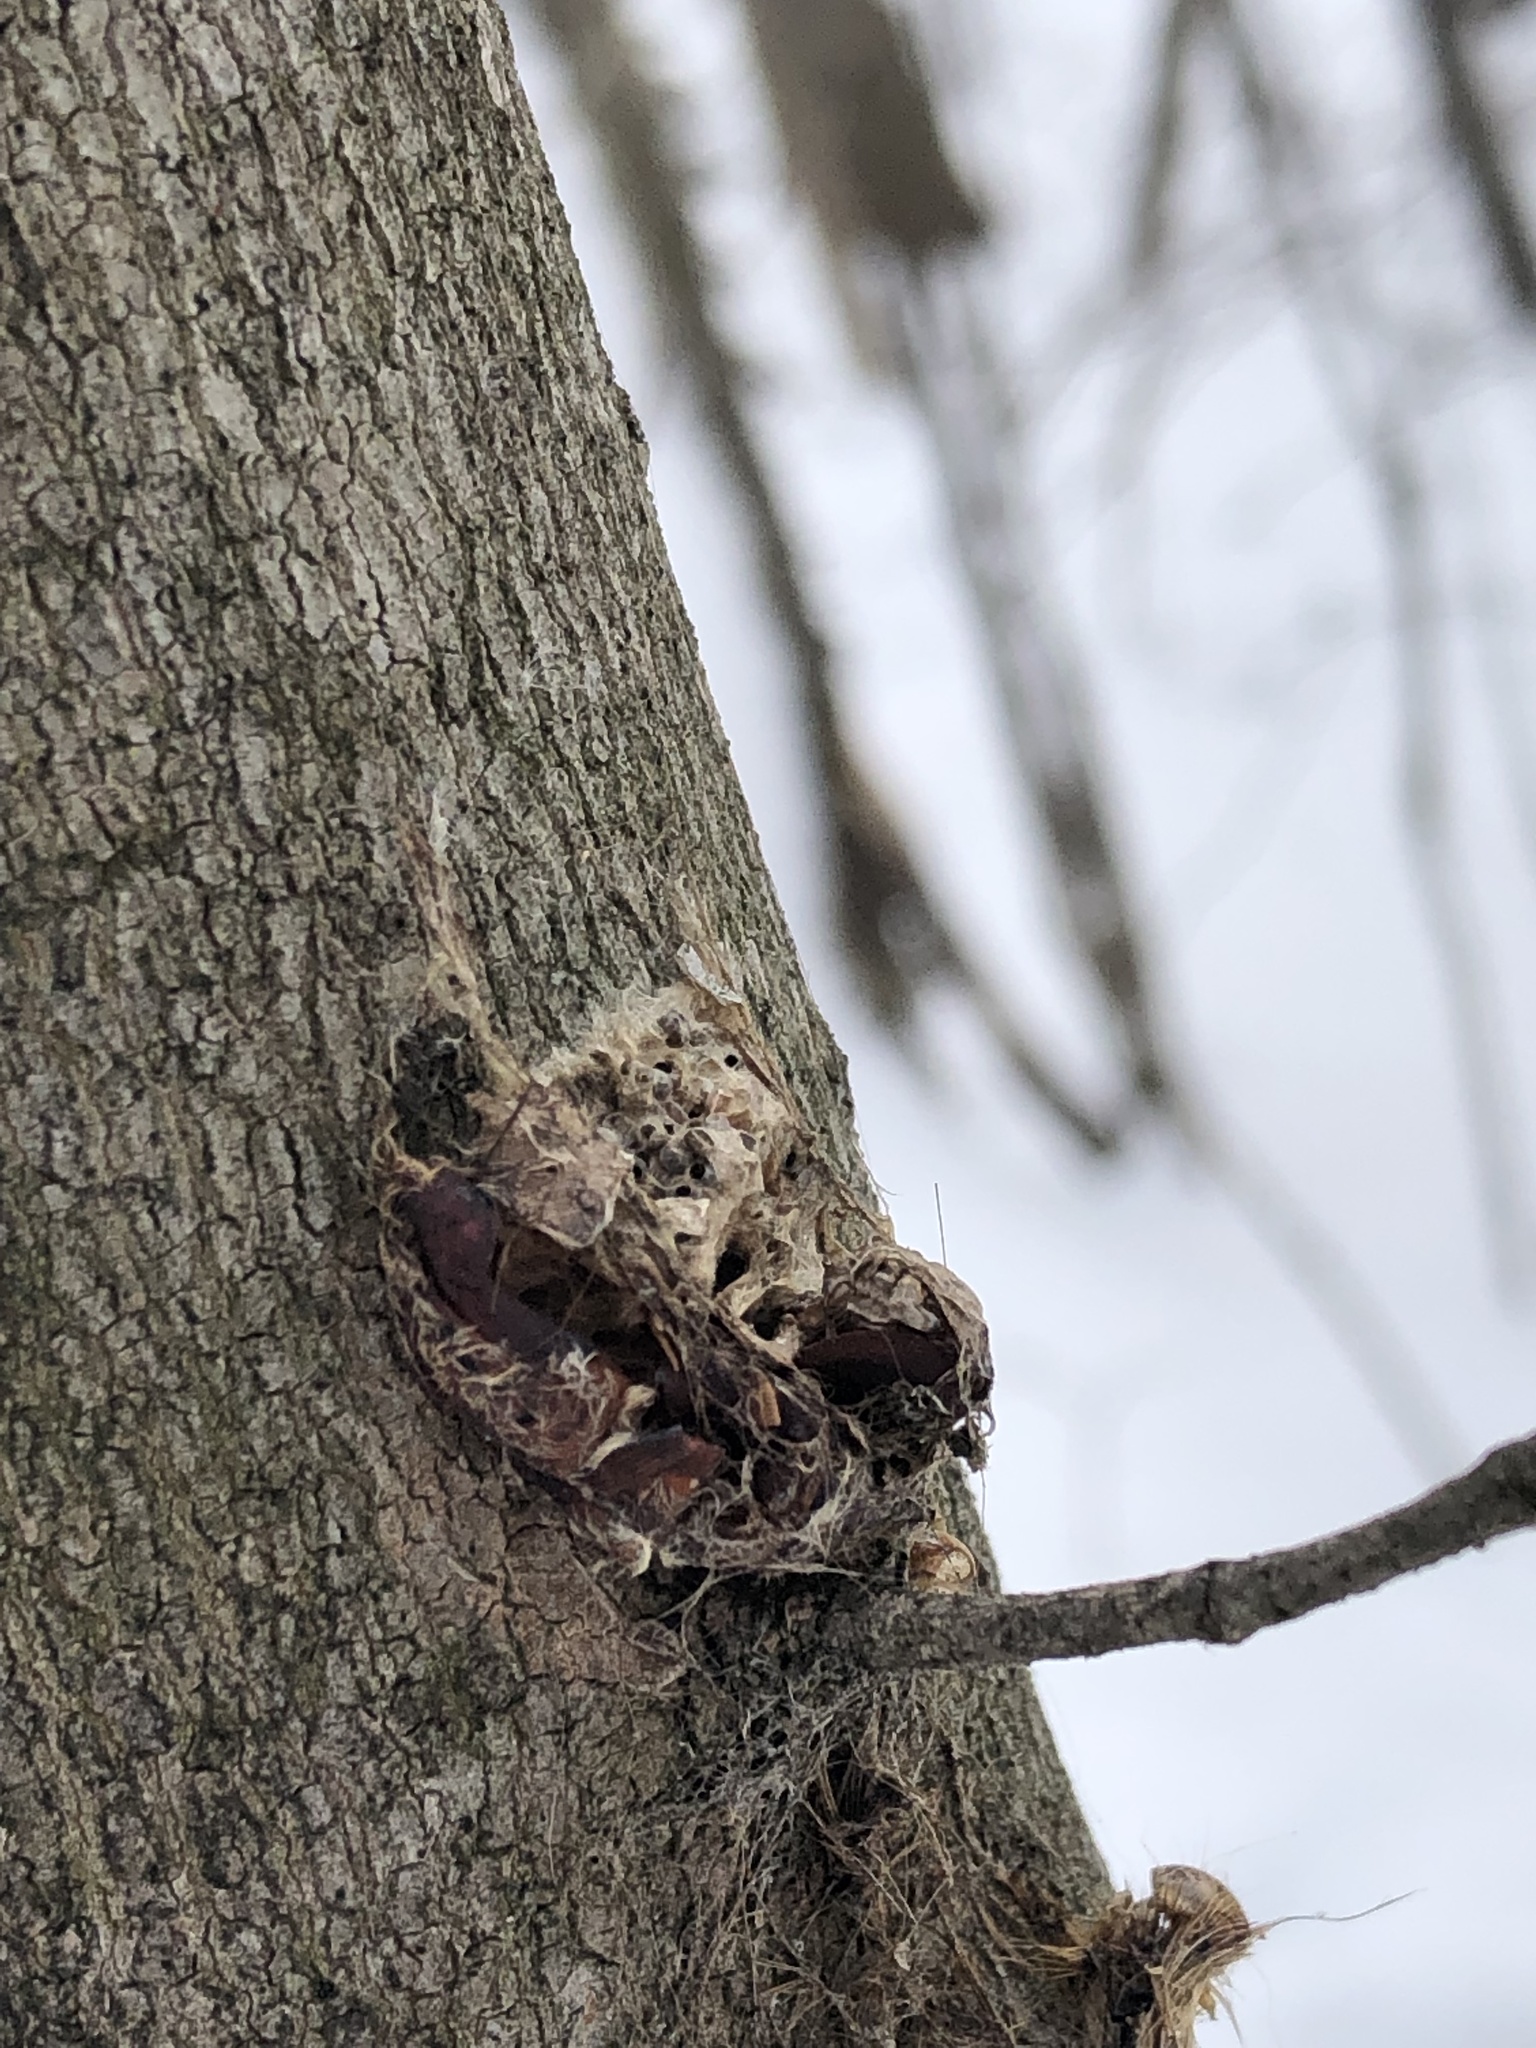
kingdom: Animalia
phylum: Arthropoda
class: Insecta
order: Lepidoptera
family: Erebidae
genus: Lymantria
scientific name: Lymantria dispar
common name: Gypsy moth
